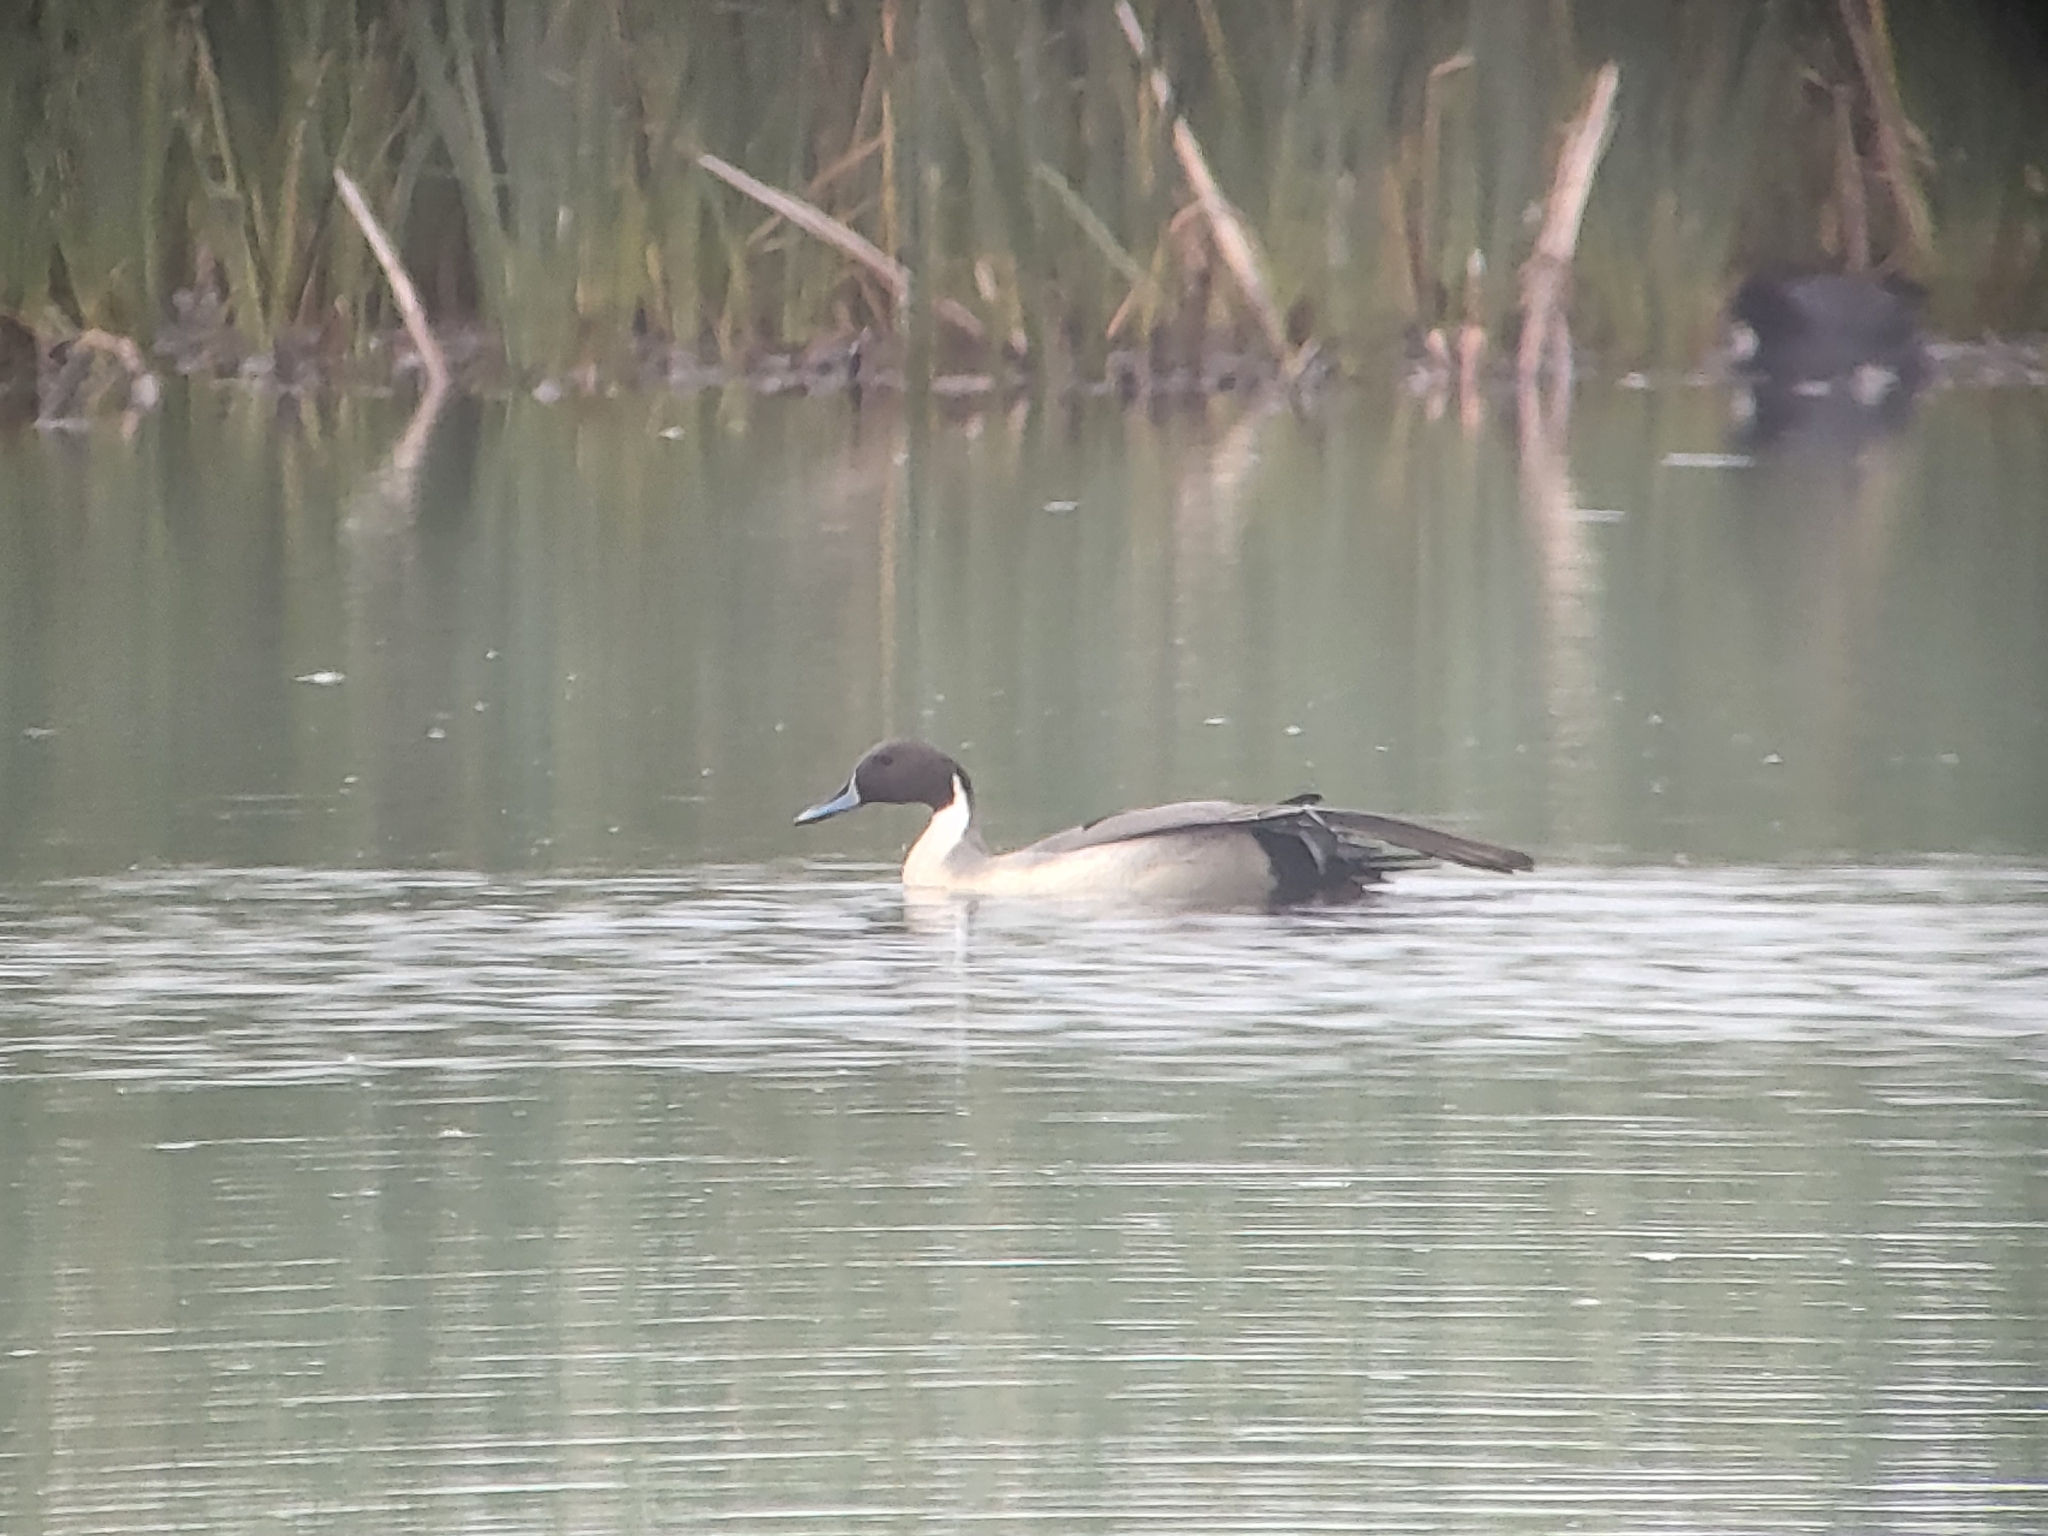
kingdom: Animalia
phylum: Chordata
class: Aves
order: Anseriformes
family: Anatidae
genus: Anas
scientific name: Anas acuta
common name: Northern pintail
